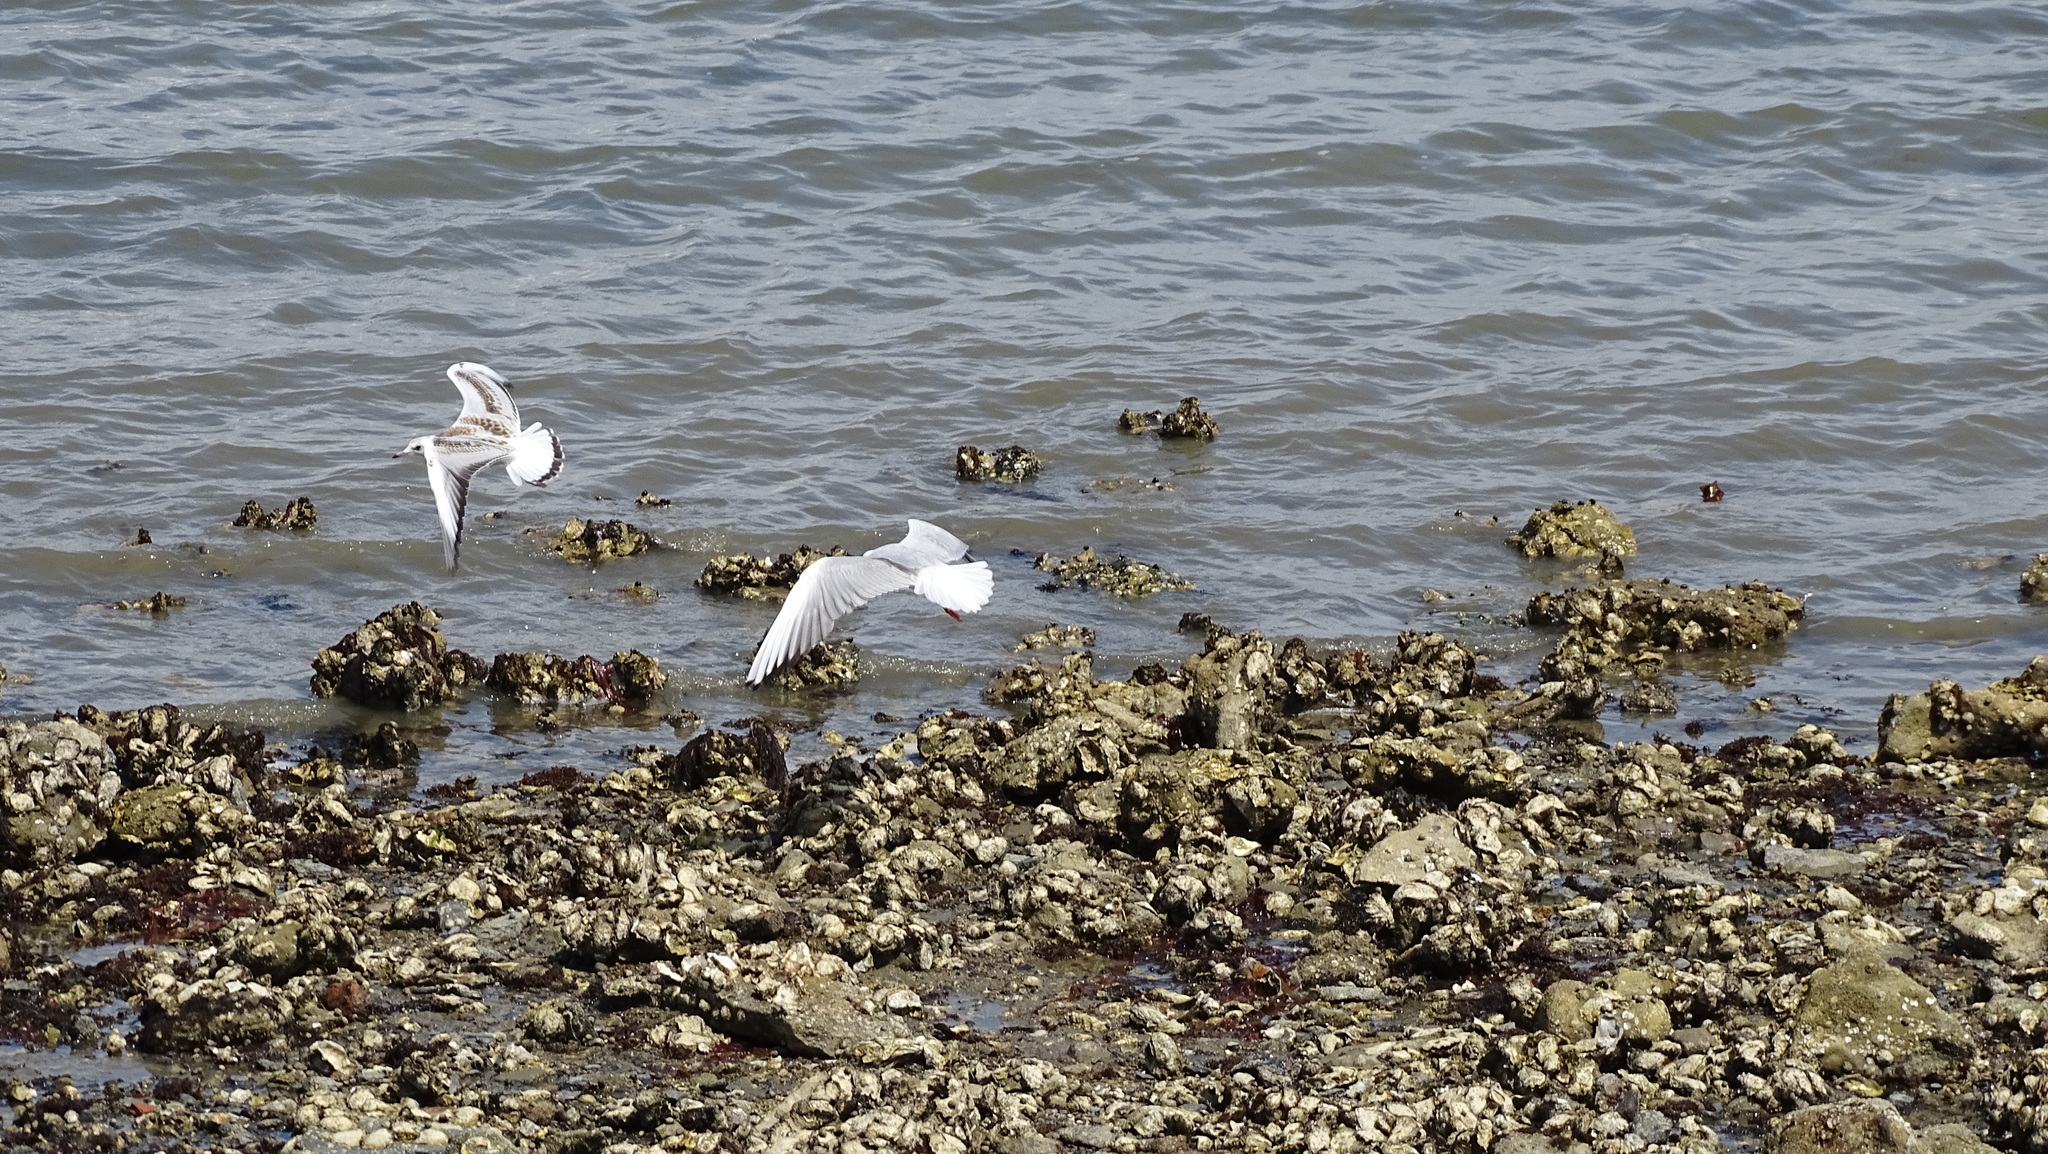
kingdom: Animalia
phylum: Chordata
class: Aves
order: Charadriiformes
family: Laridae
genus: Chroicocephalus
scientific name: Chroicocephalus ridibundus
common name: Black-headed gull
